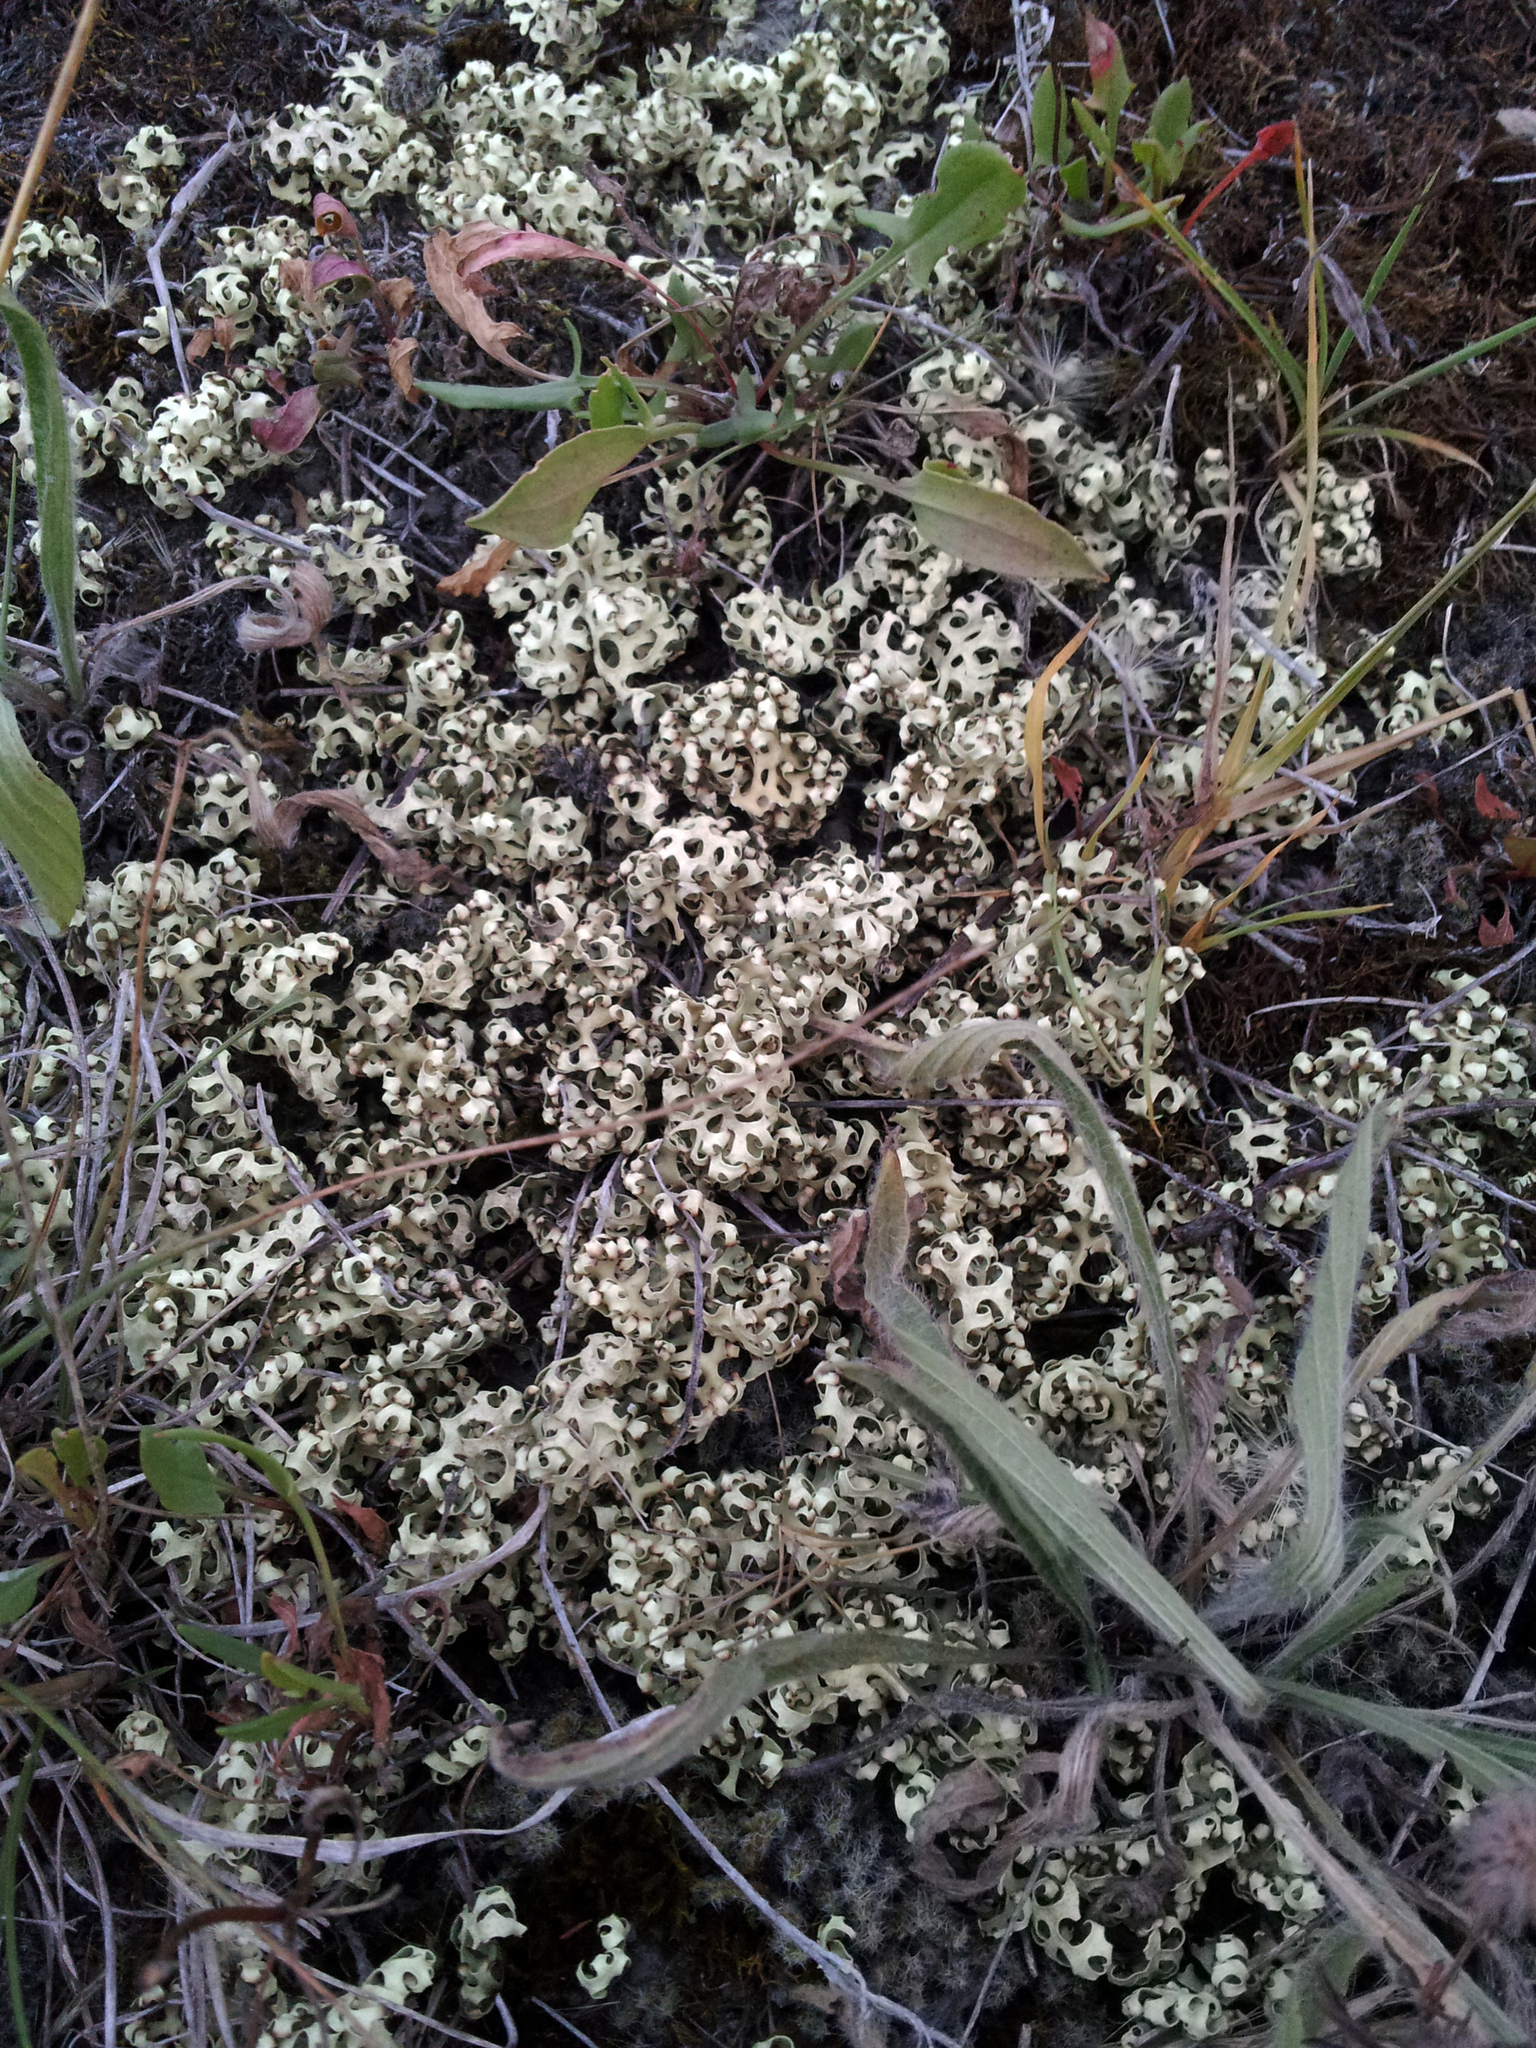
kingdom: Fungi
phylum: Ascomycota
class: Lecanoromycetes
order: Lecanorales
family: Parmeliaceae
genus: Xanthoparmelia
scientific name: Xanthoparmelia semiviridis
